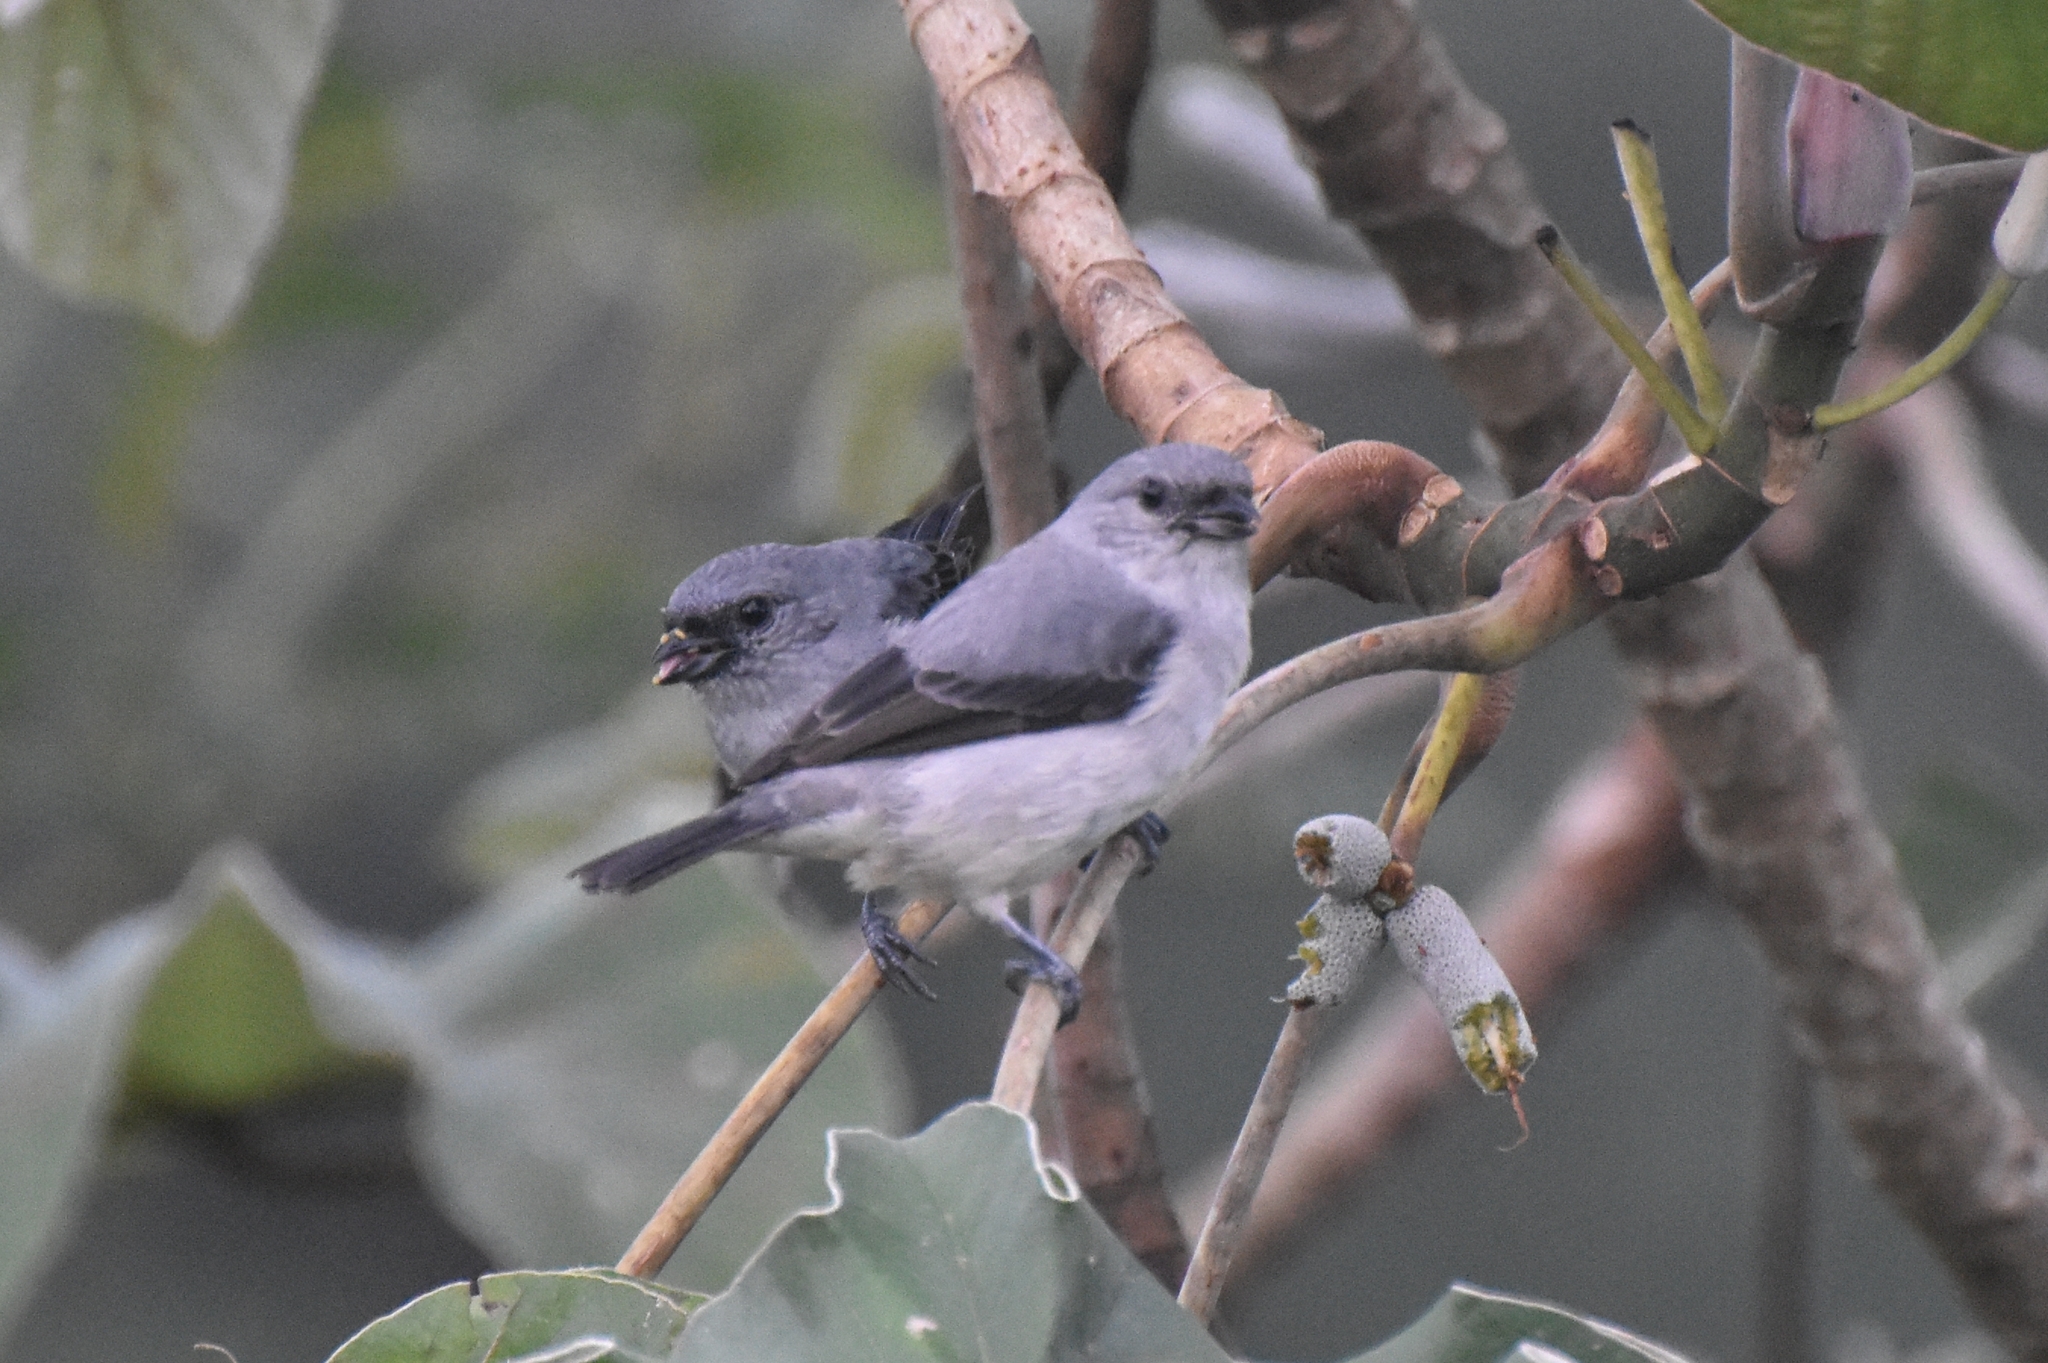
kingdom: Animalia
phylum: Chordata
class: Aves
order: Passeriformes
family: Thraupidae
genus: Tangara
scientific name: Tangara inornata
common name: Plain-colored tanager
